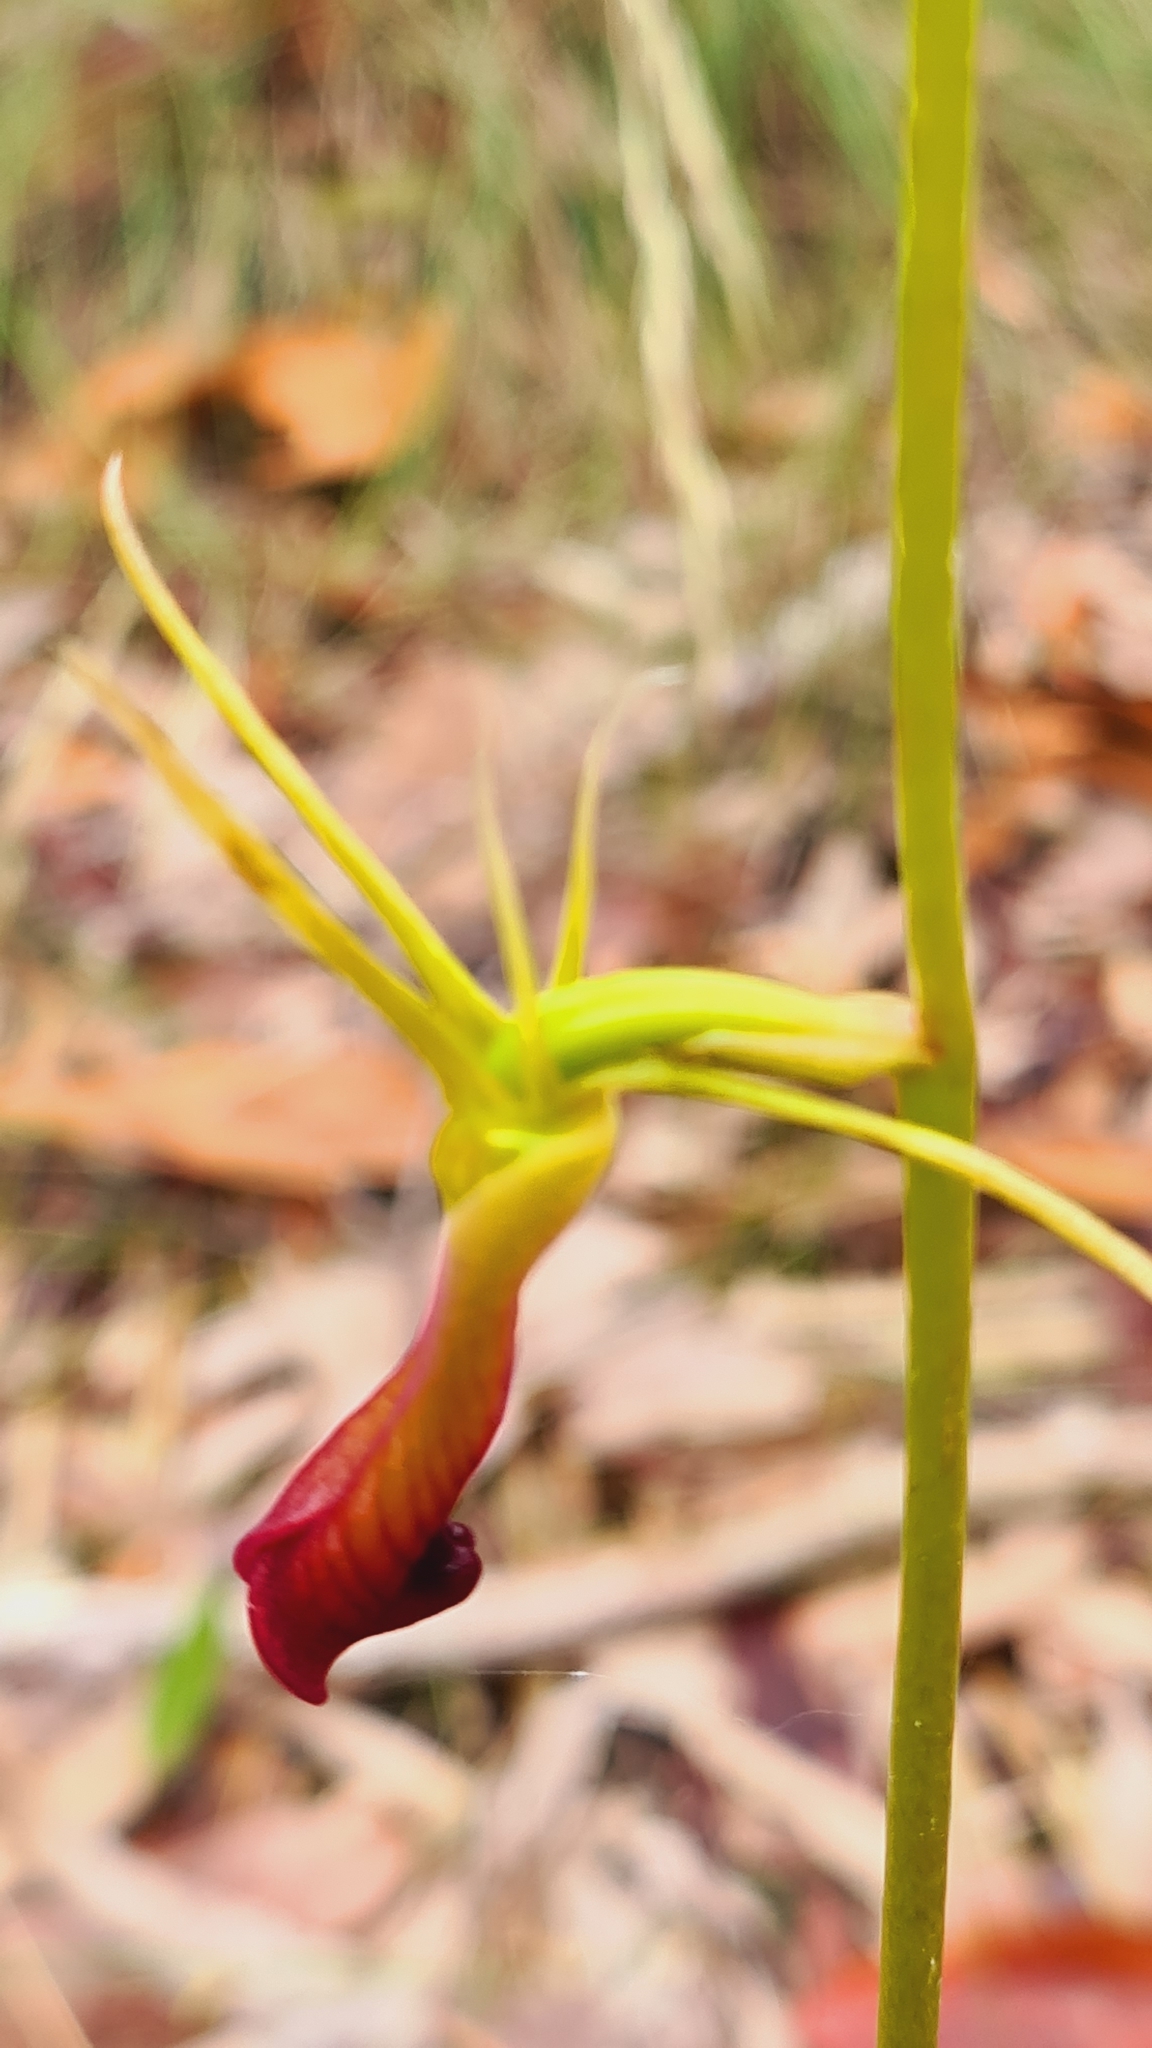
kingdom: Plantae
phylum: Tracheophyta
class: Liliopsida
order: Asparagales
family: Orchidaceae
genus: Cryptostylis
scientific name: Cryptostylis subulata
